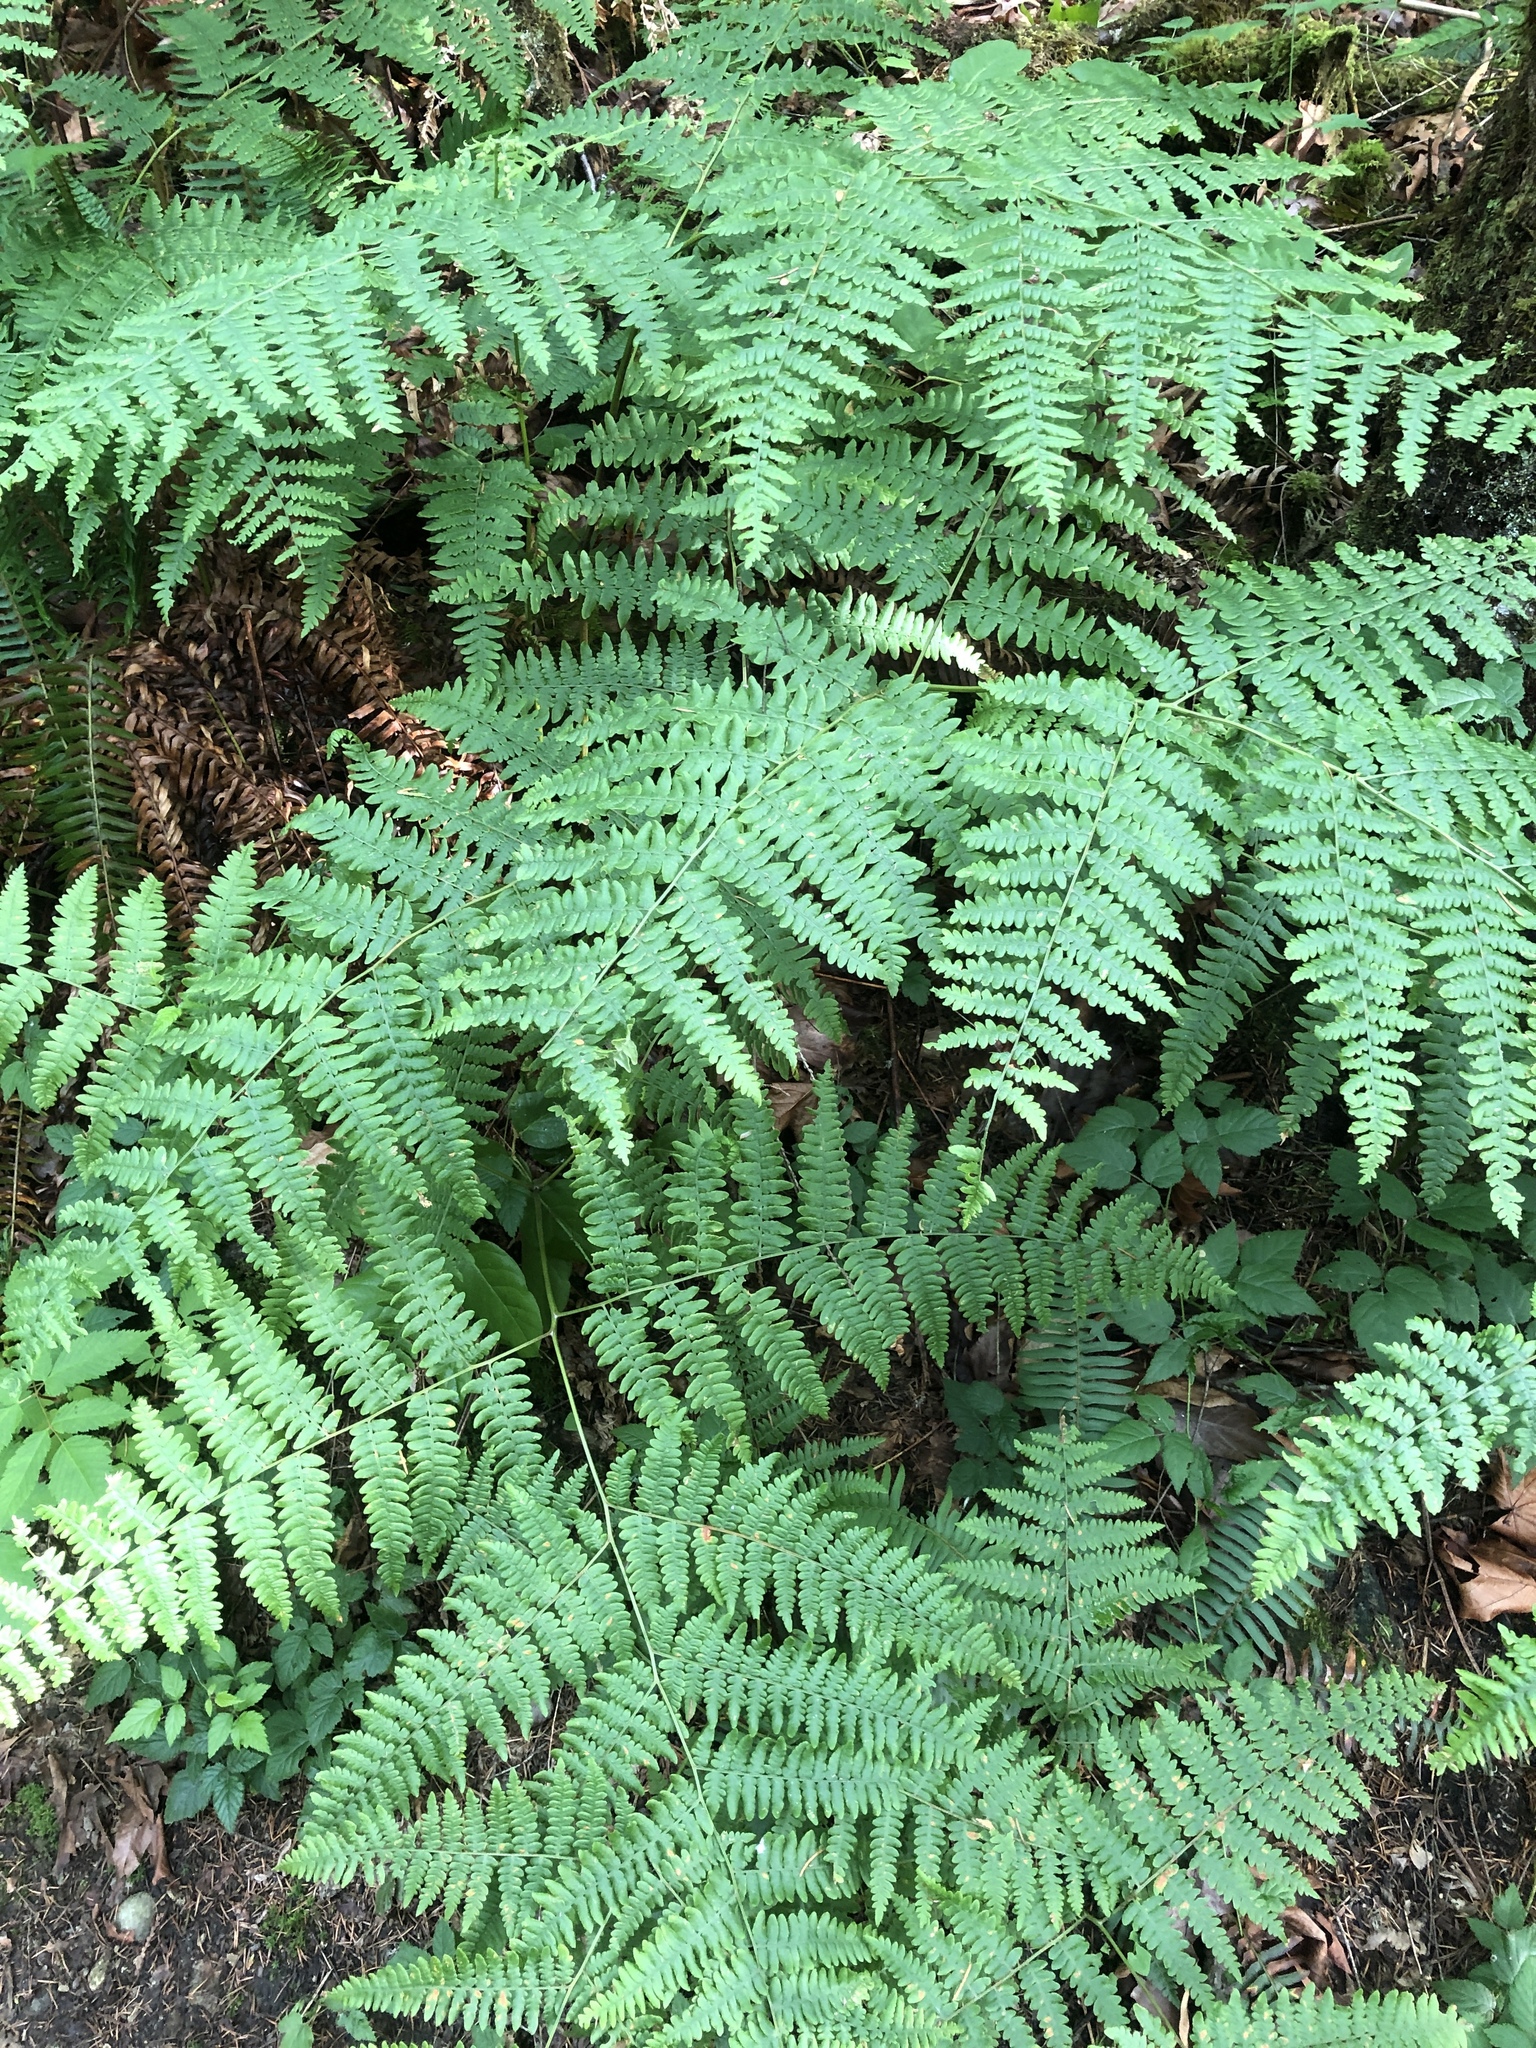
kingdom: Plantae
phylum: Tracheophyta
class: Polypodiopsida
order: Polypodiales
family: Dennstaedtiaceae
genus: Pteridium
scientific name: Pteridium aquilinum
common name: Bracken
